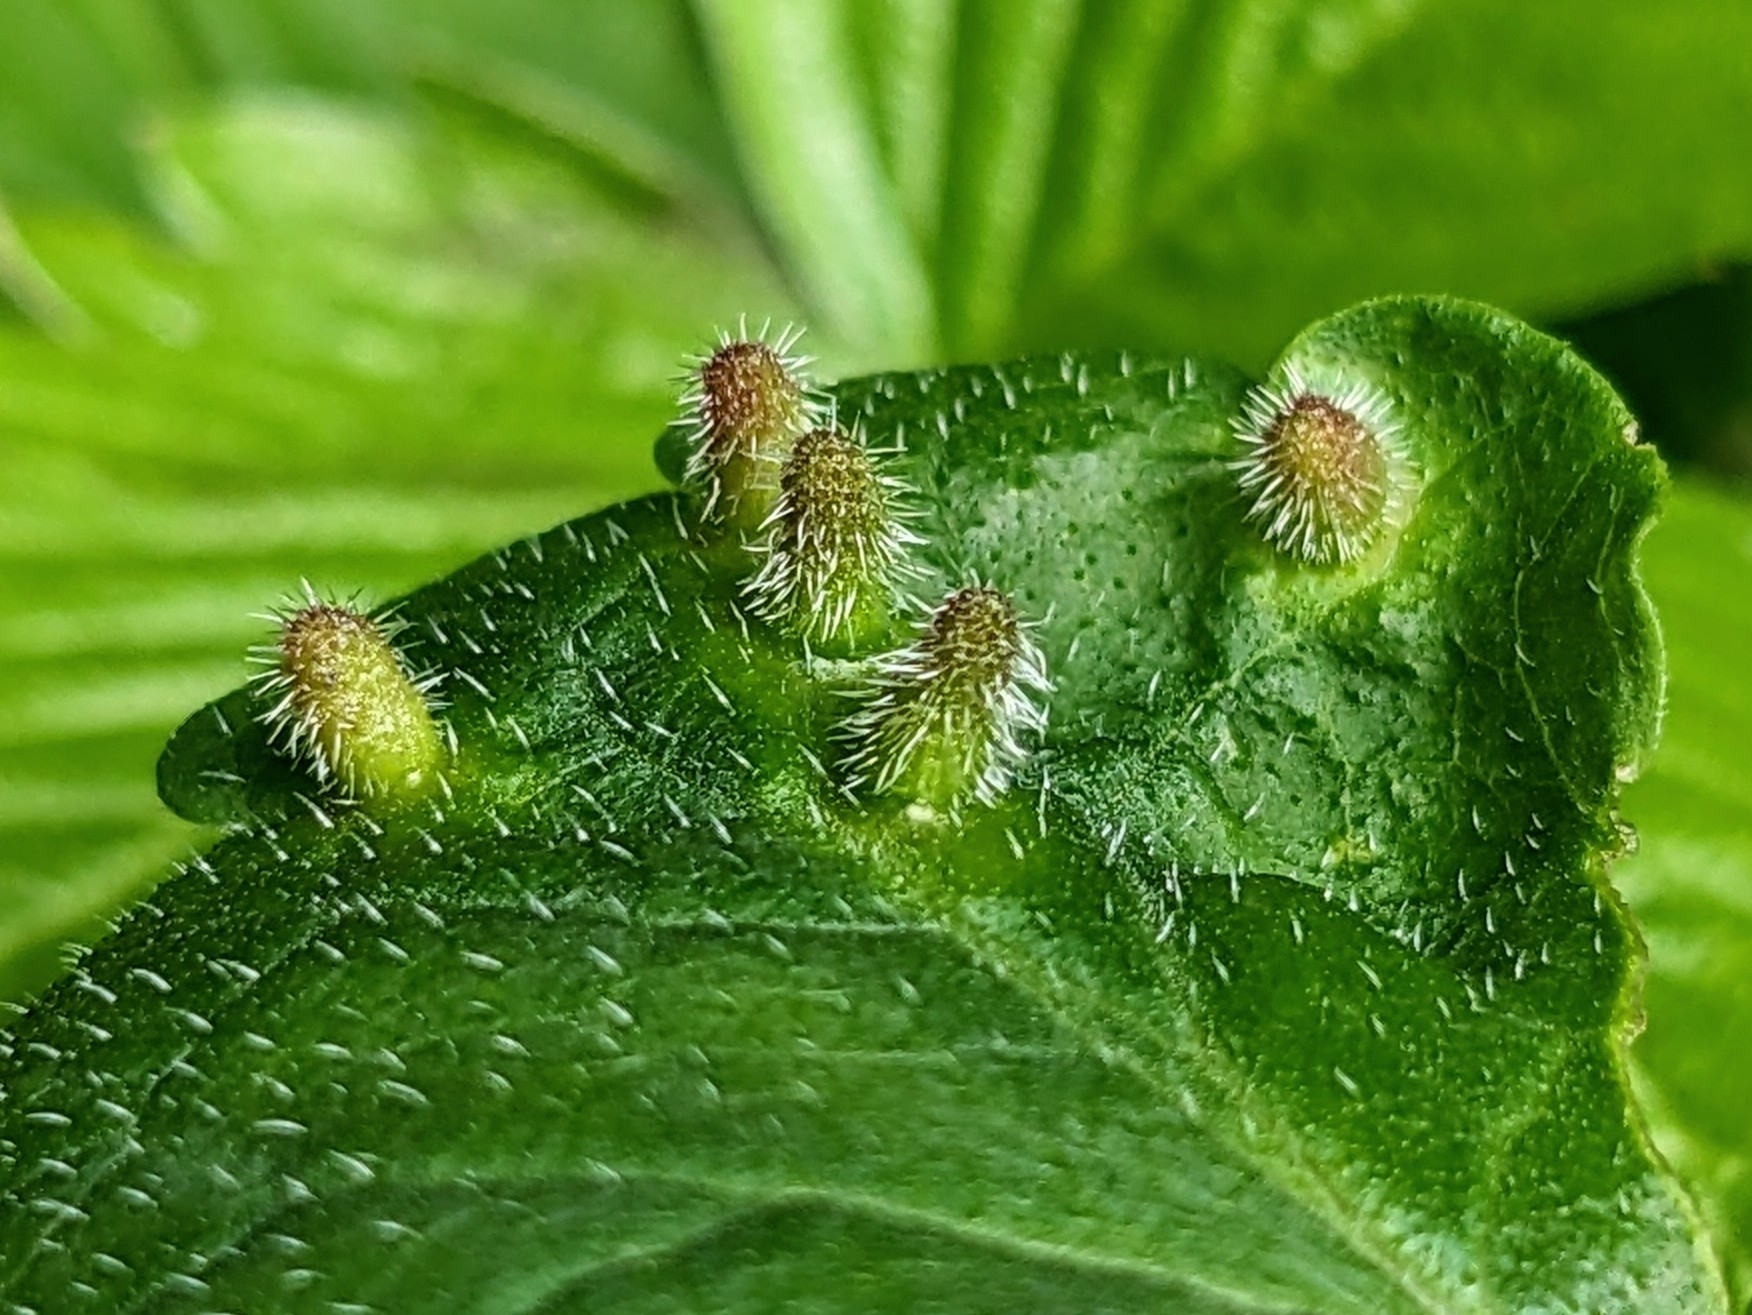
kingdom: Animalia
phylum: Arthropoda
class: Insecta
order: Diptera
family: Cecidomyiidae
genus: Rondaniola
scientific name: Rondaniola bursaria
